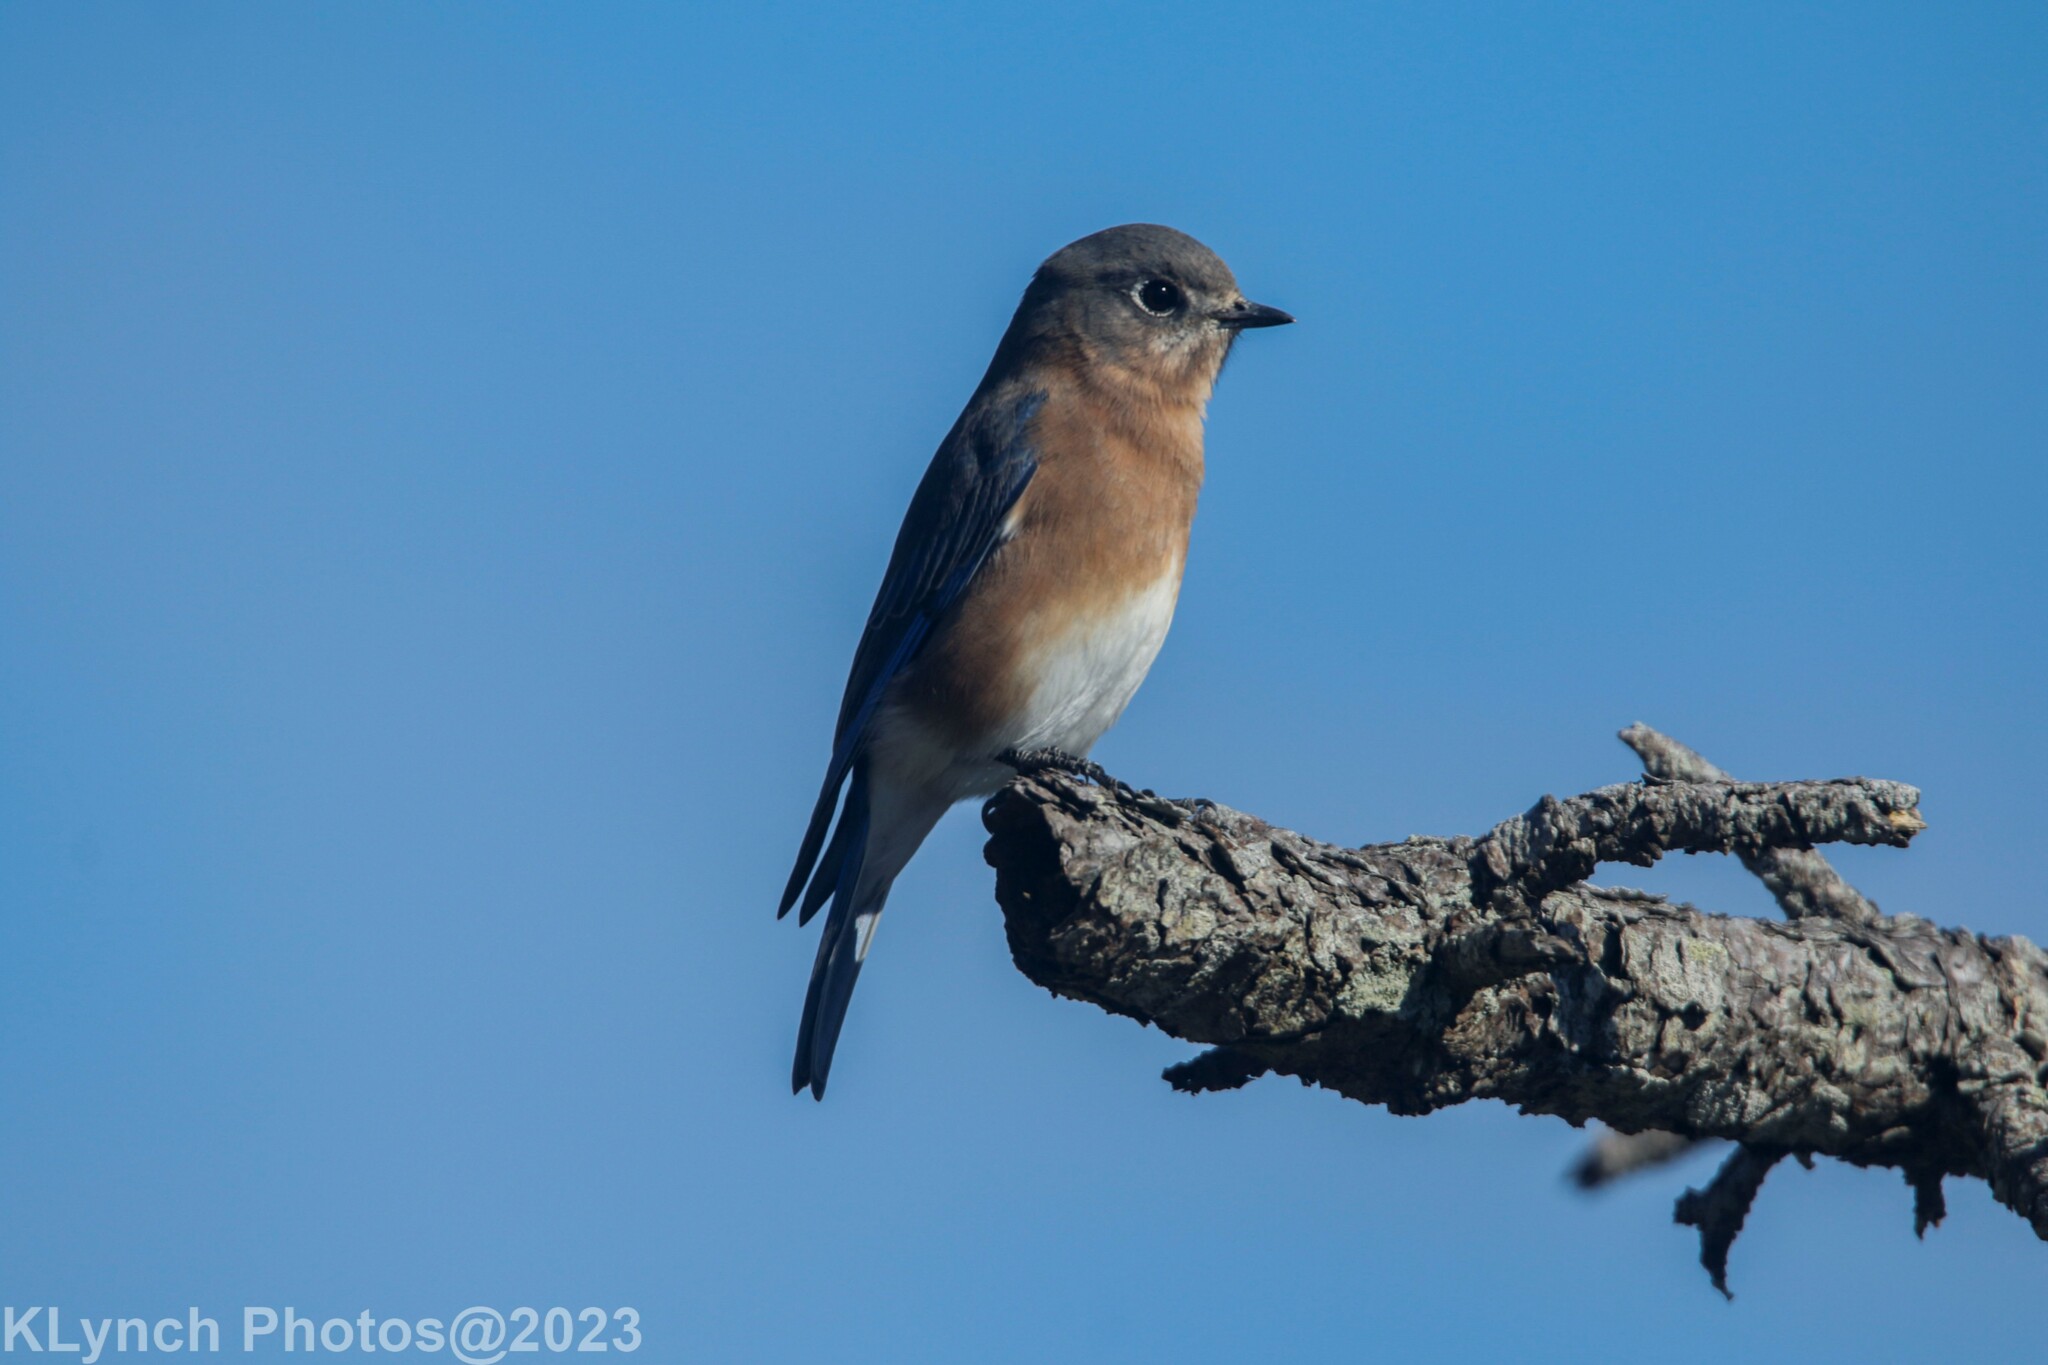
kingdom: Animalia
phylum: Chordata
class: Aves
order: Passeriformes
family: Turdidae
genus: Sialia
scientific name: Sialia sialis
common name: Eastern bluebird
